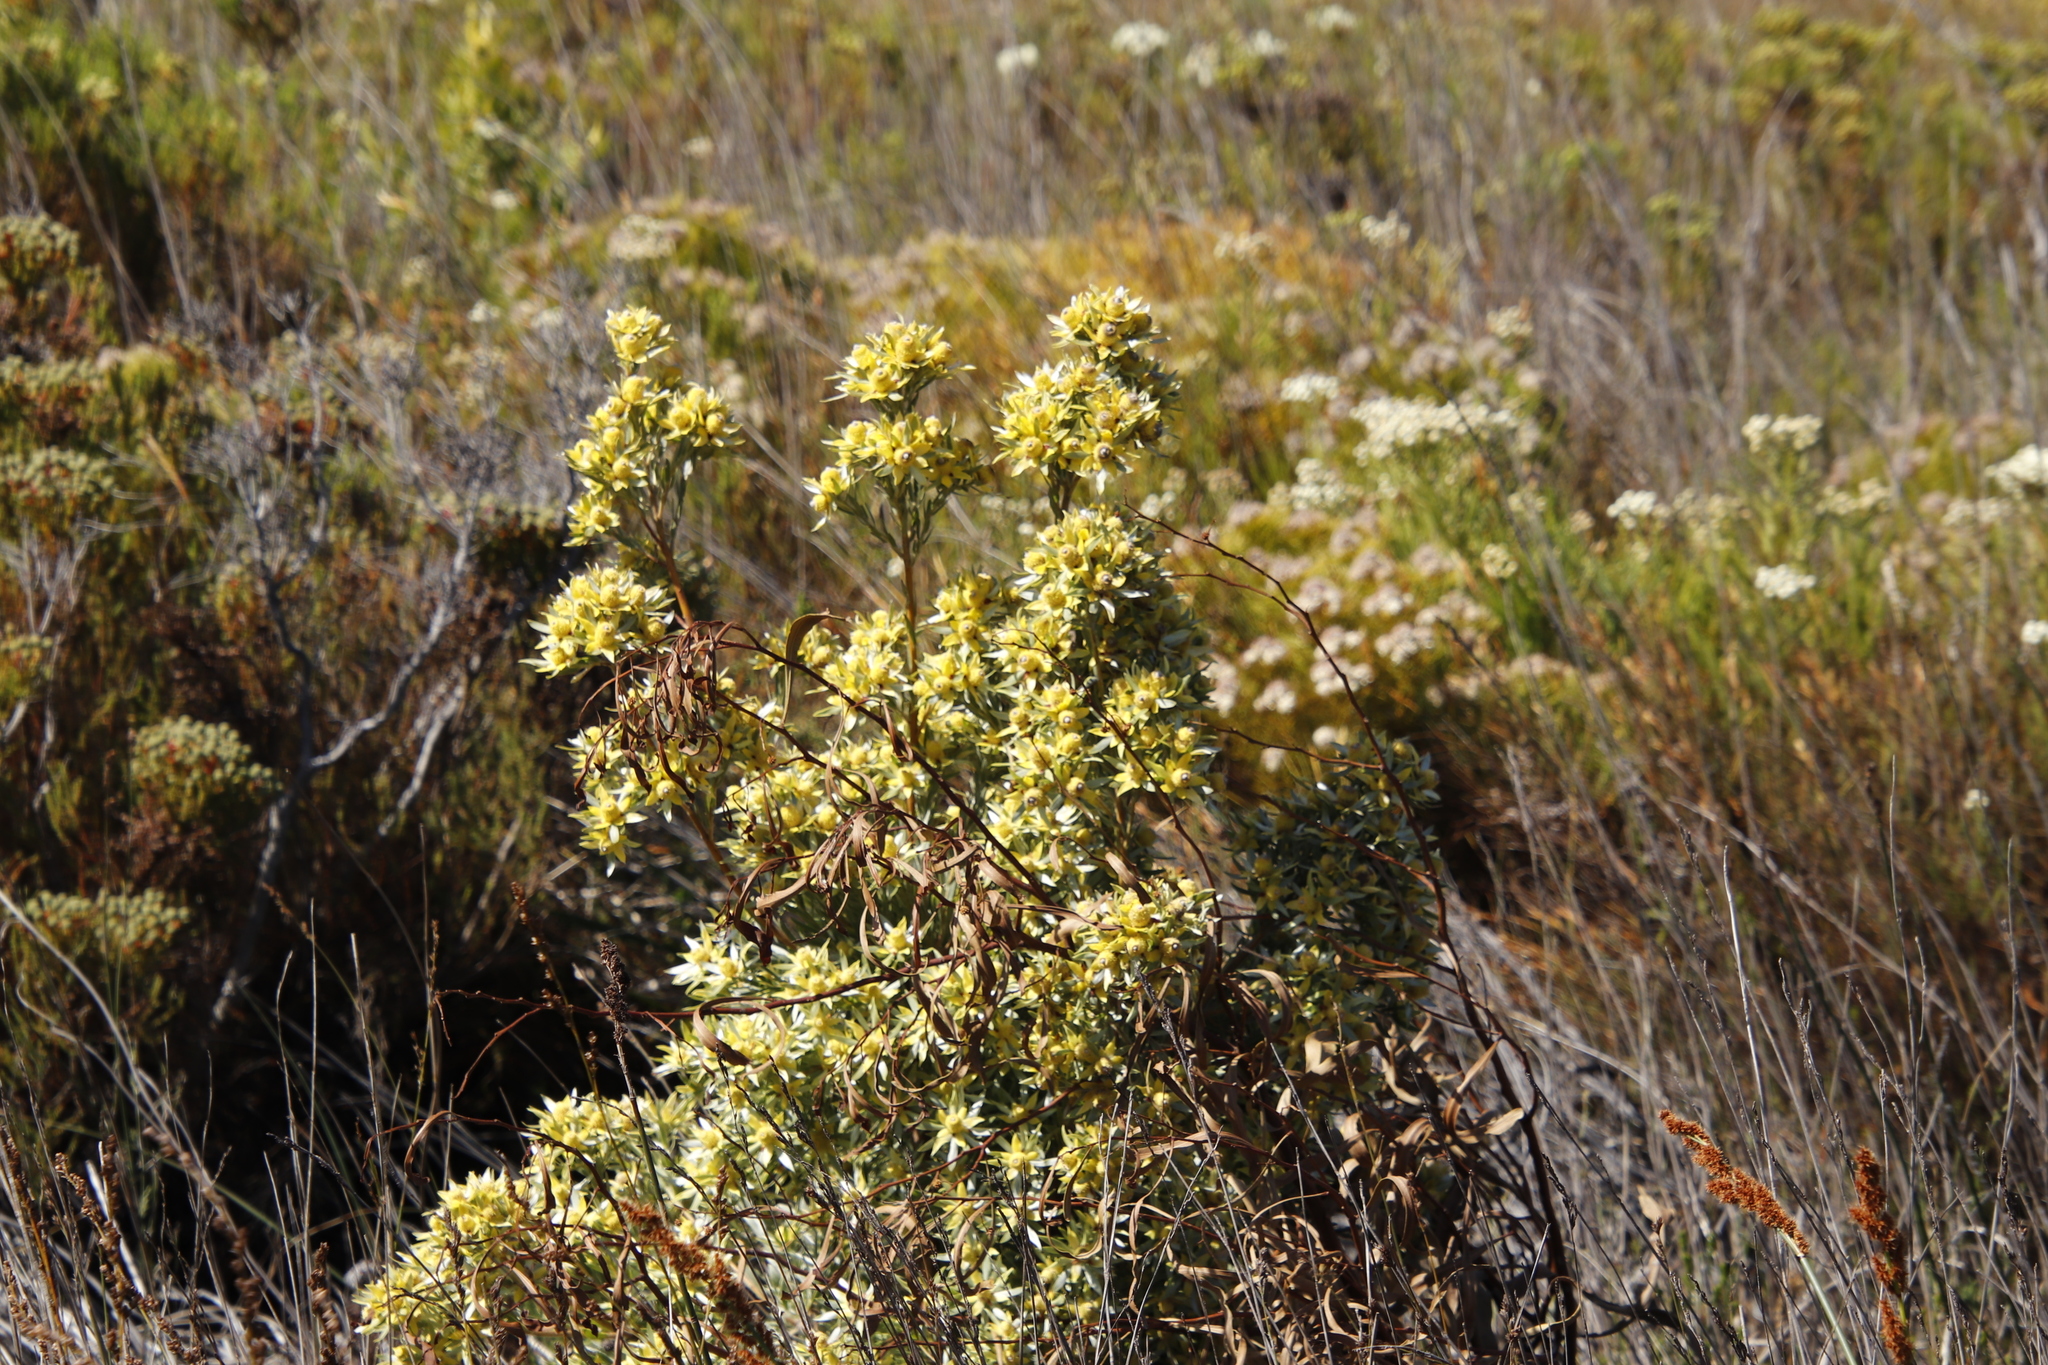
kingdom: Plantae
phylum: Tracheophyta
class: Magnoliopsida
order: Proteales
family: Proteaceae
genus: Leucadendron
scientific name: Leucadendron floridum
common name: Flats conebush
